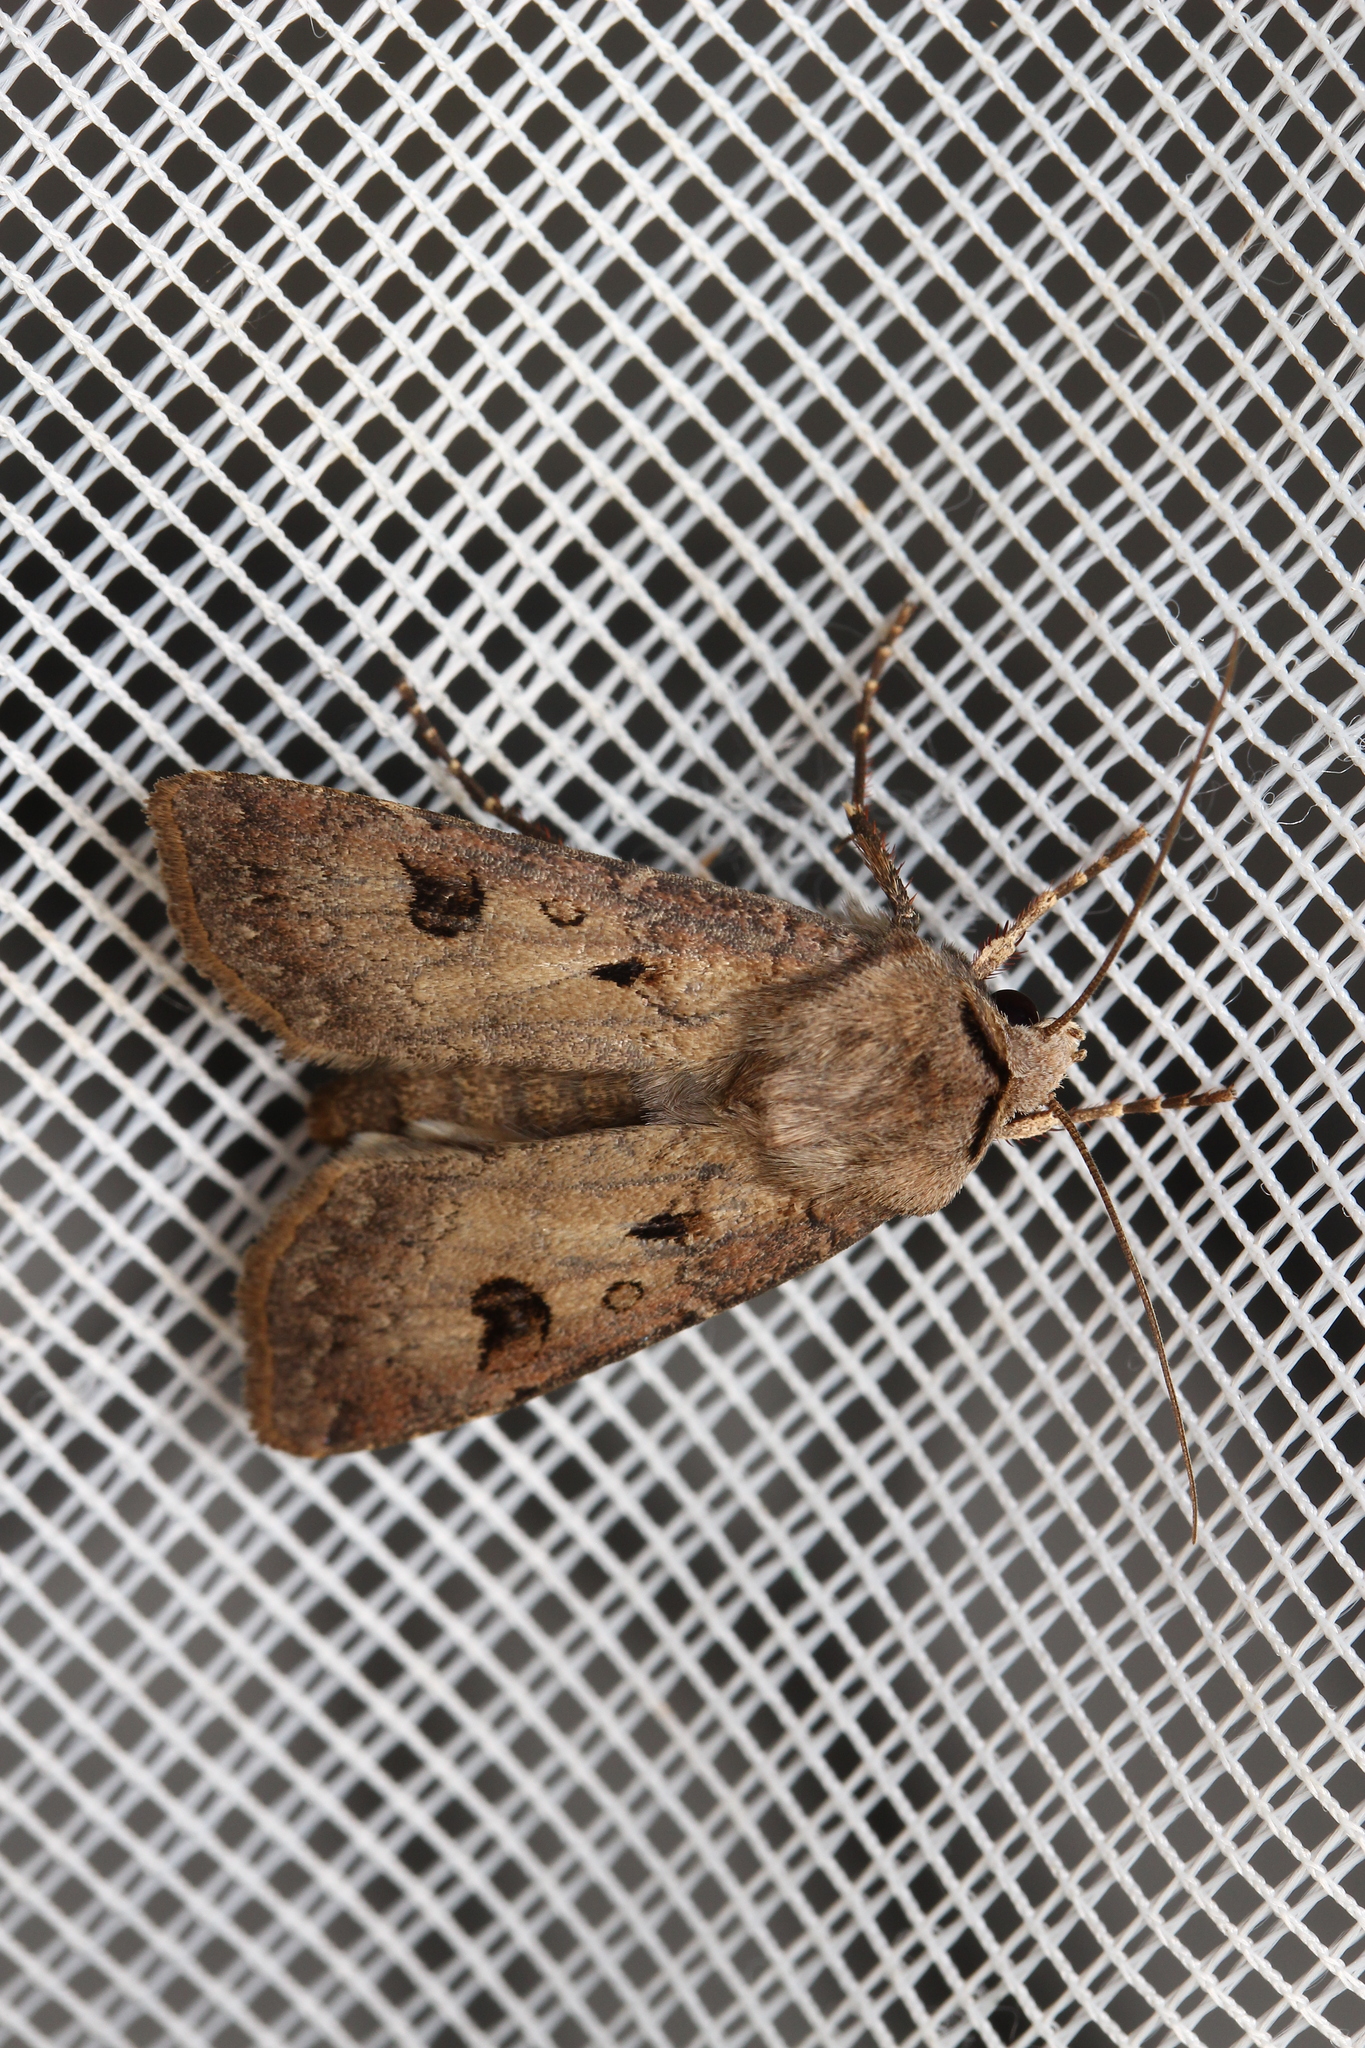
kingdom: Animalia
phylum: Arthropoda
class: Insecta
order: Lepidoptera
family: Noctuidae
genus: Agrotis
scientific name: Agrotis exclamationis
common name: Heart and dart
